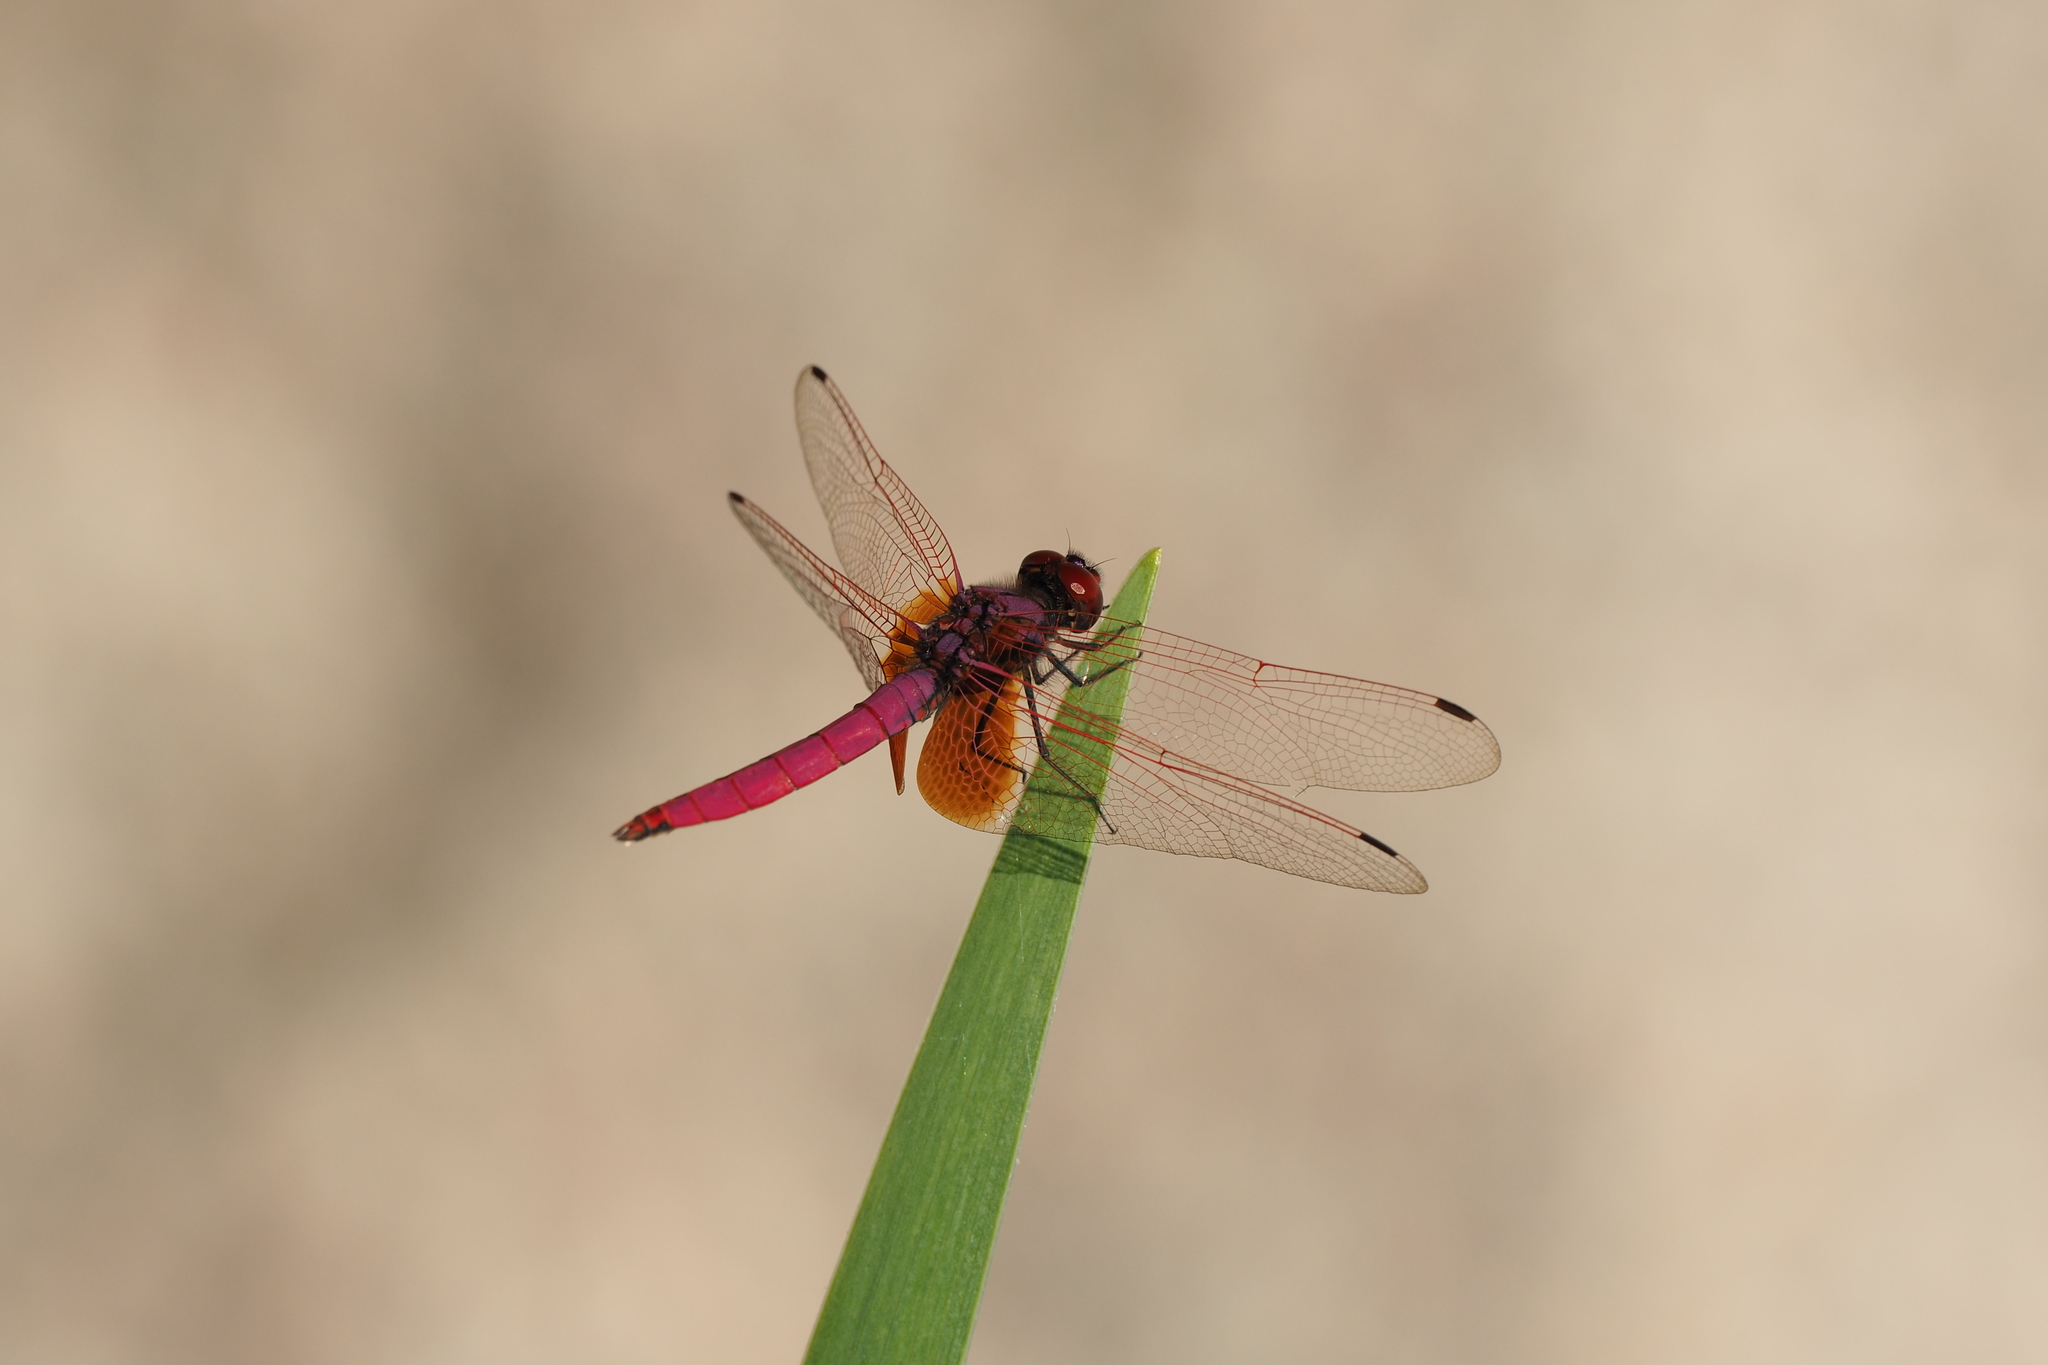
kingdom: Animalia
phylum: Arthropoda
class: Insecta
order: Odonata
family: Libellulidae
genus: Trithemis
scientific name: Trithemis aurora
